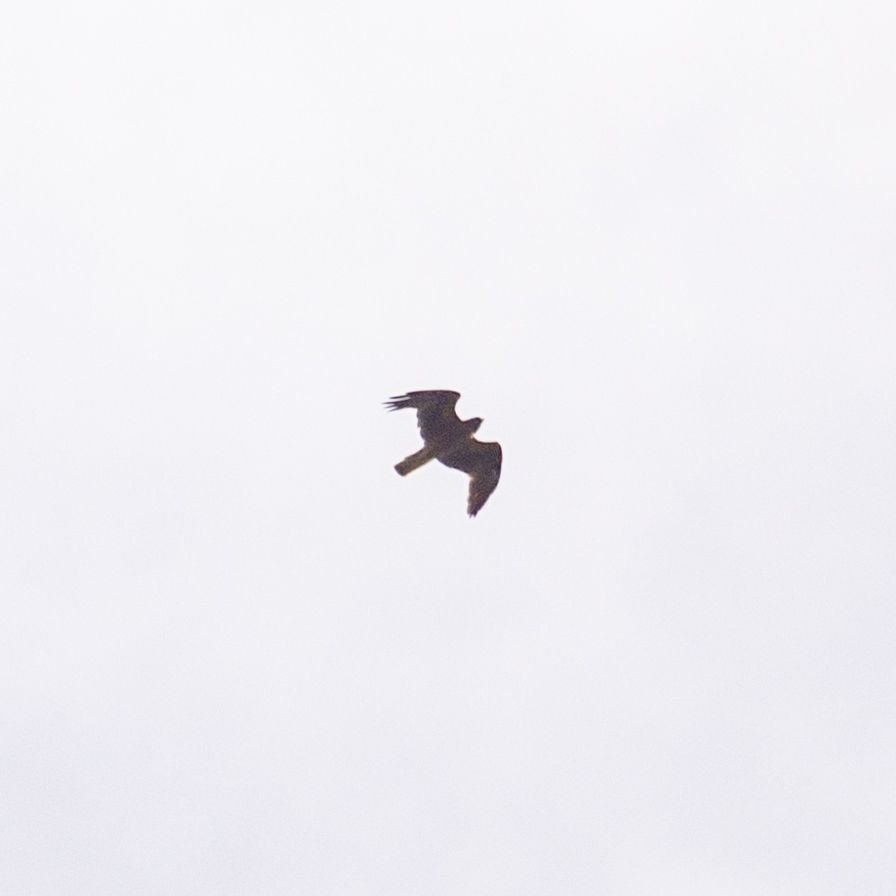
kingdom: Animalia
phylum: Chordata
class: Aves
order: Accipitriformes
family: Accipitridae
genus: Hieraaetus
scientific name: Hieraaetus pennatus
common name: Booted eagle
